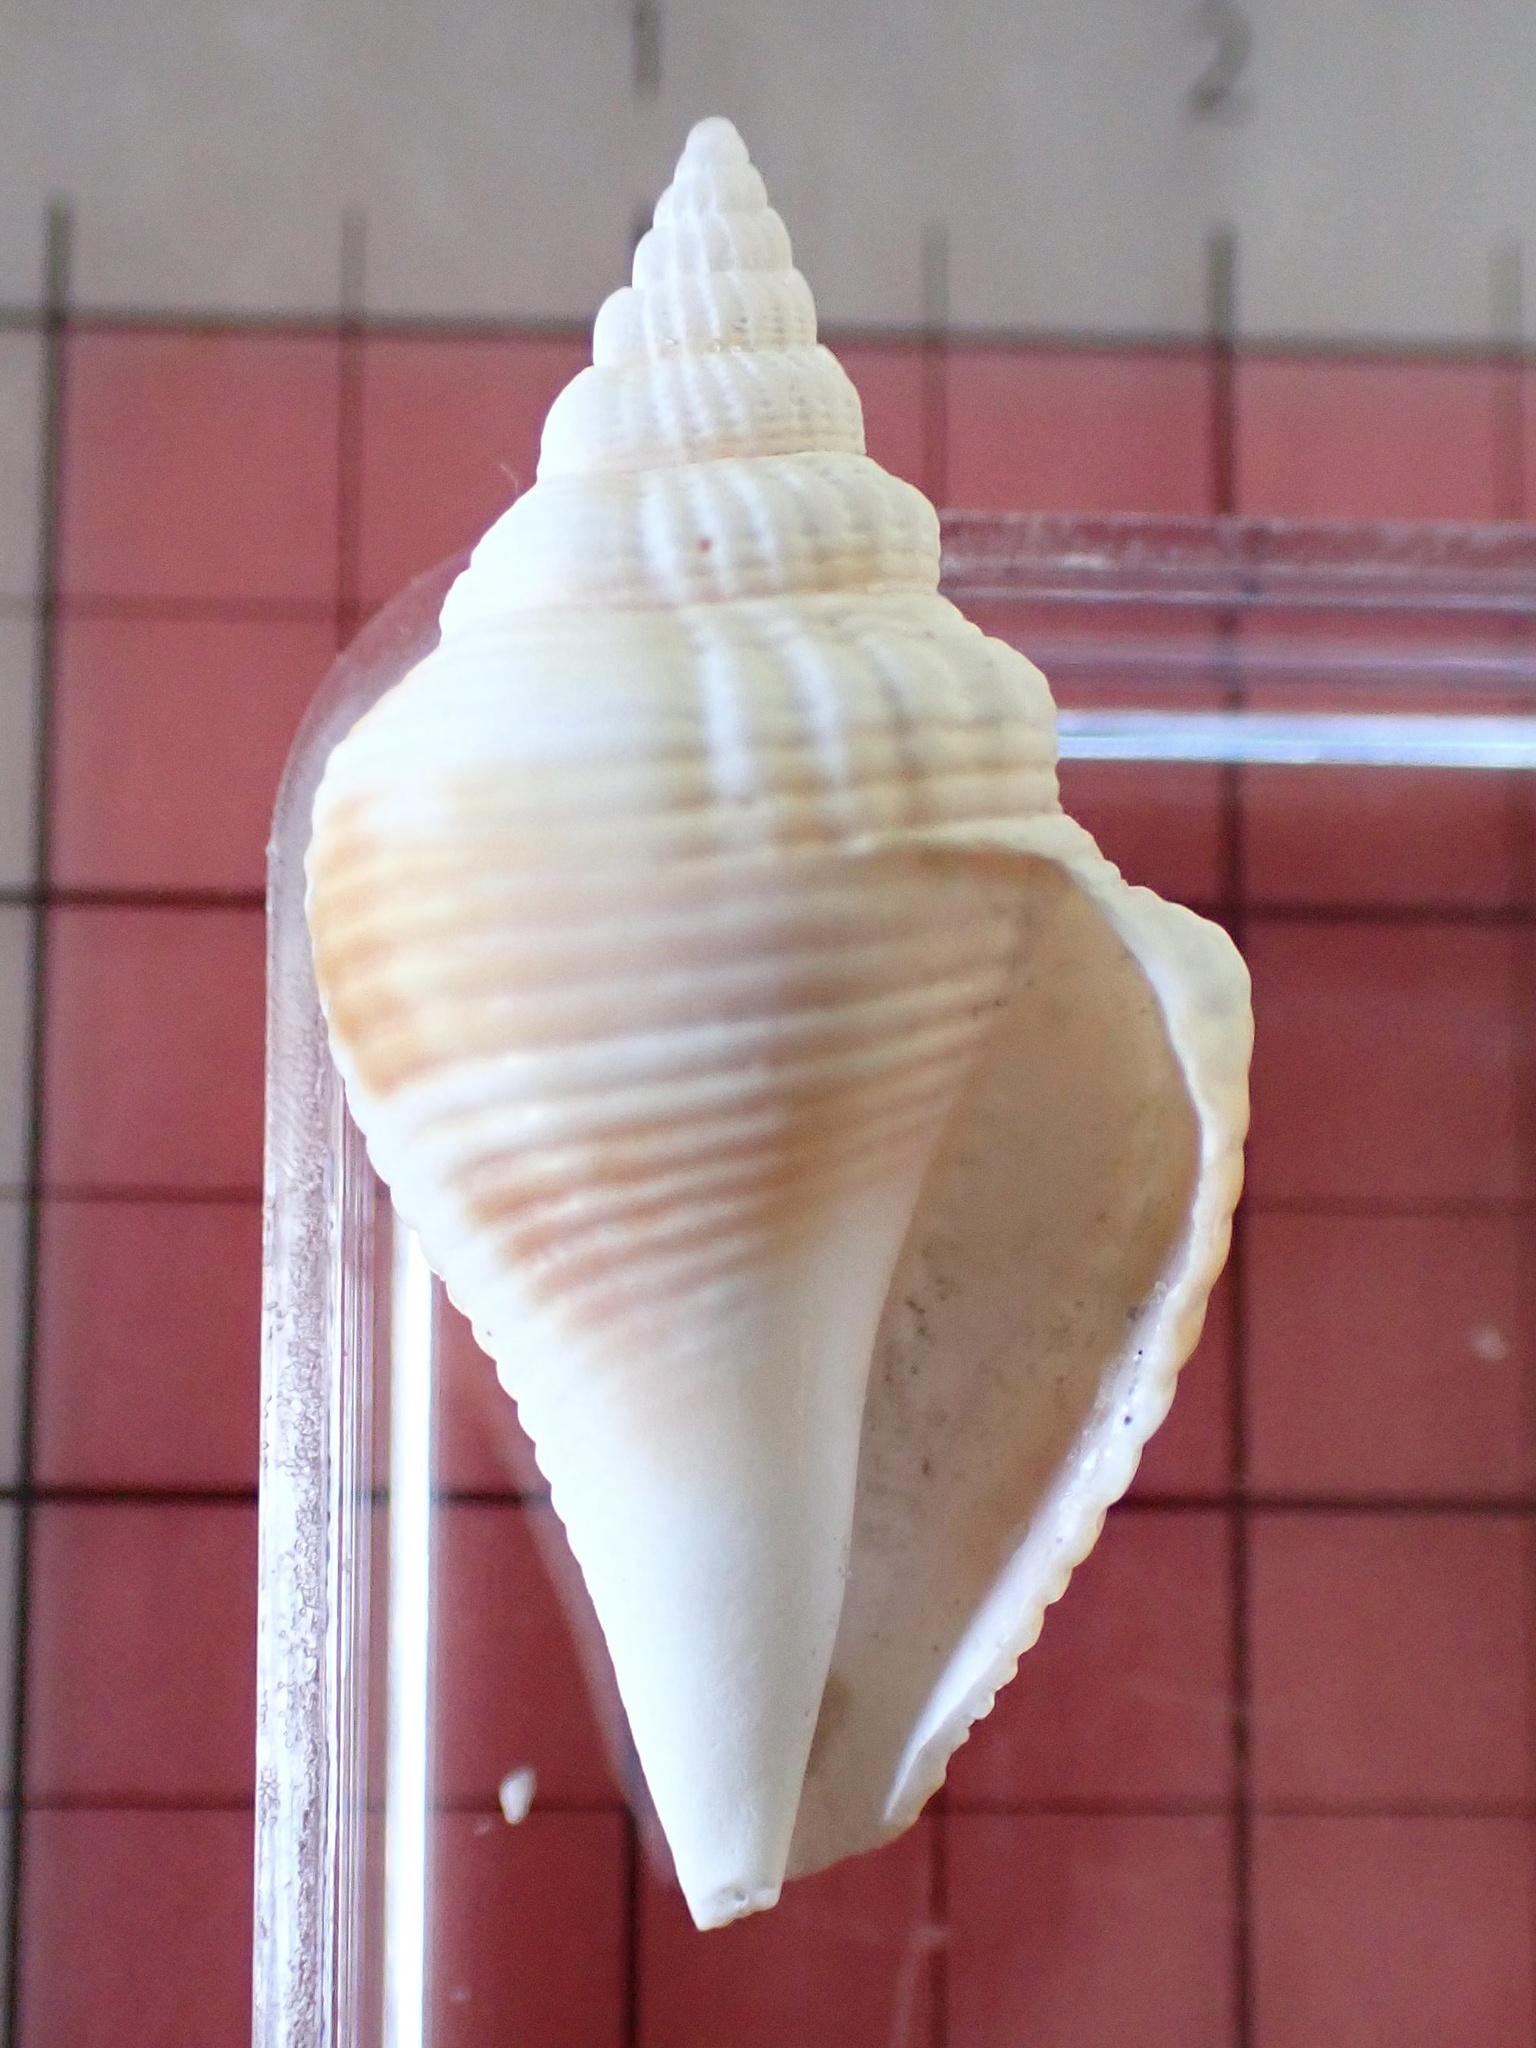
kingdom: Animalia
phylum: Mollusca
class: Gastropoda
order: Littorinimorpha
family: Strombidae
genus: Strombus
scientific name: Strombus alatus
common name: Florida fighting conch
